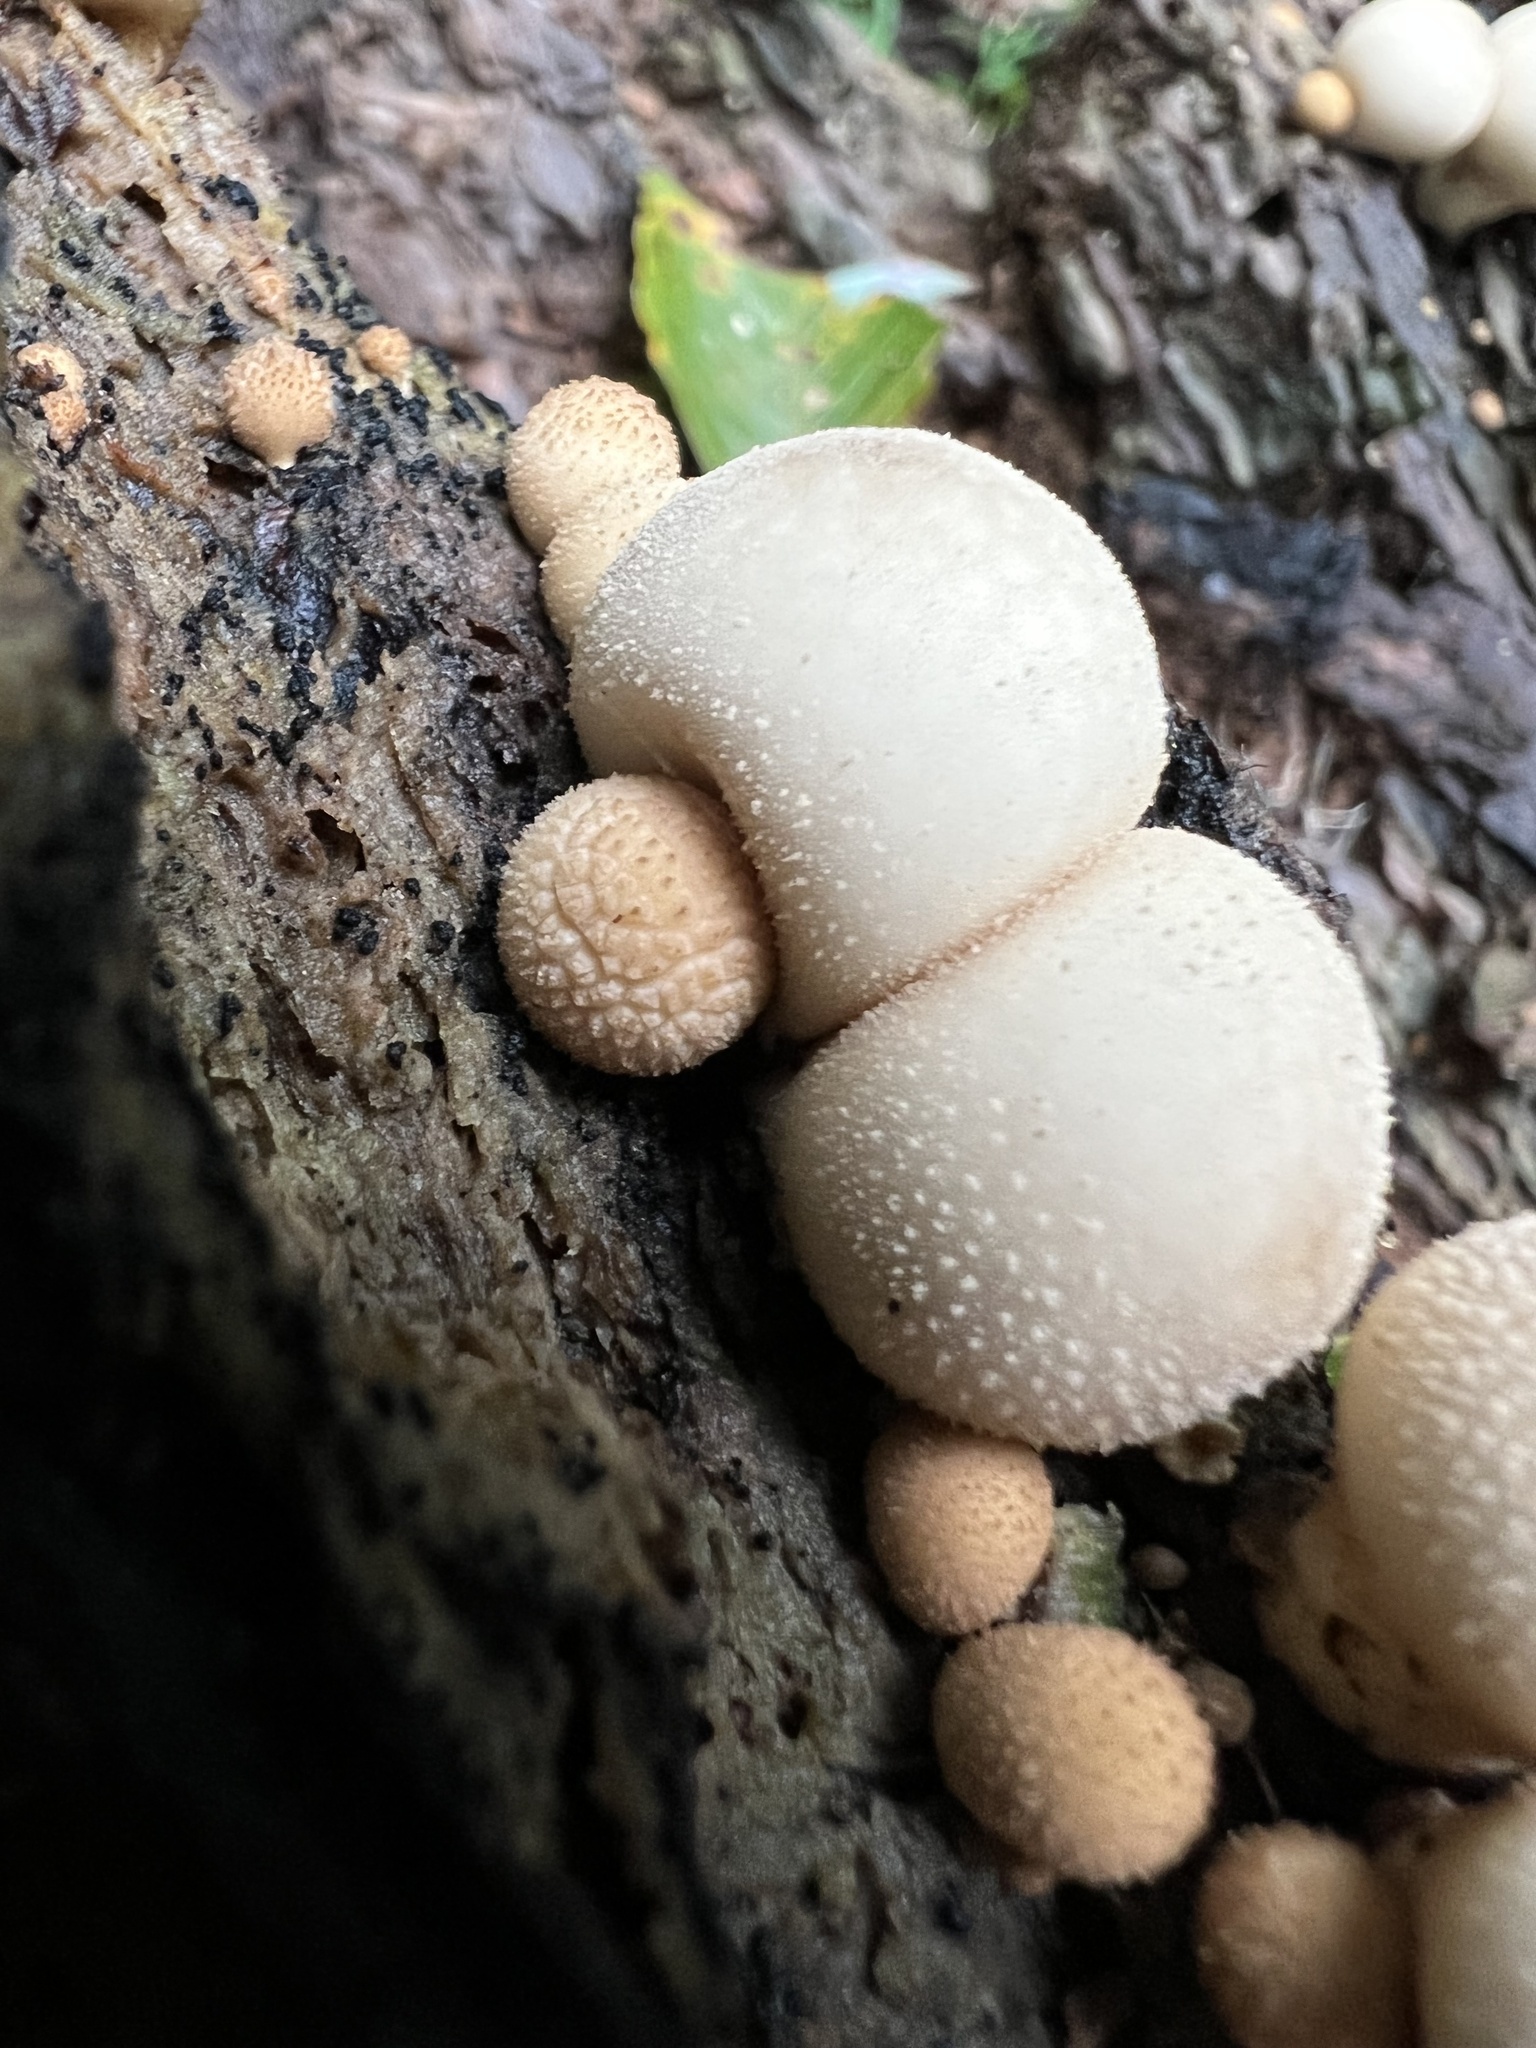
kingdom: Fungi
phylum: Basidiomycota
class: Agaricomycetes
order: Agaricales
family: Lycoperdaceae
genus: Apioperdon
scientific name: Apioperdon pyriforme
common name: Pear-shaped puffball
